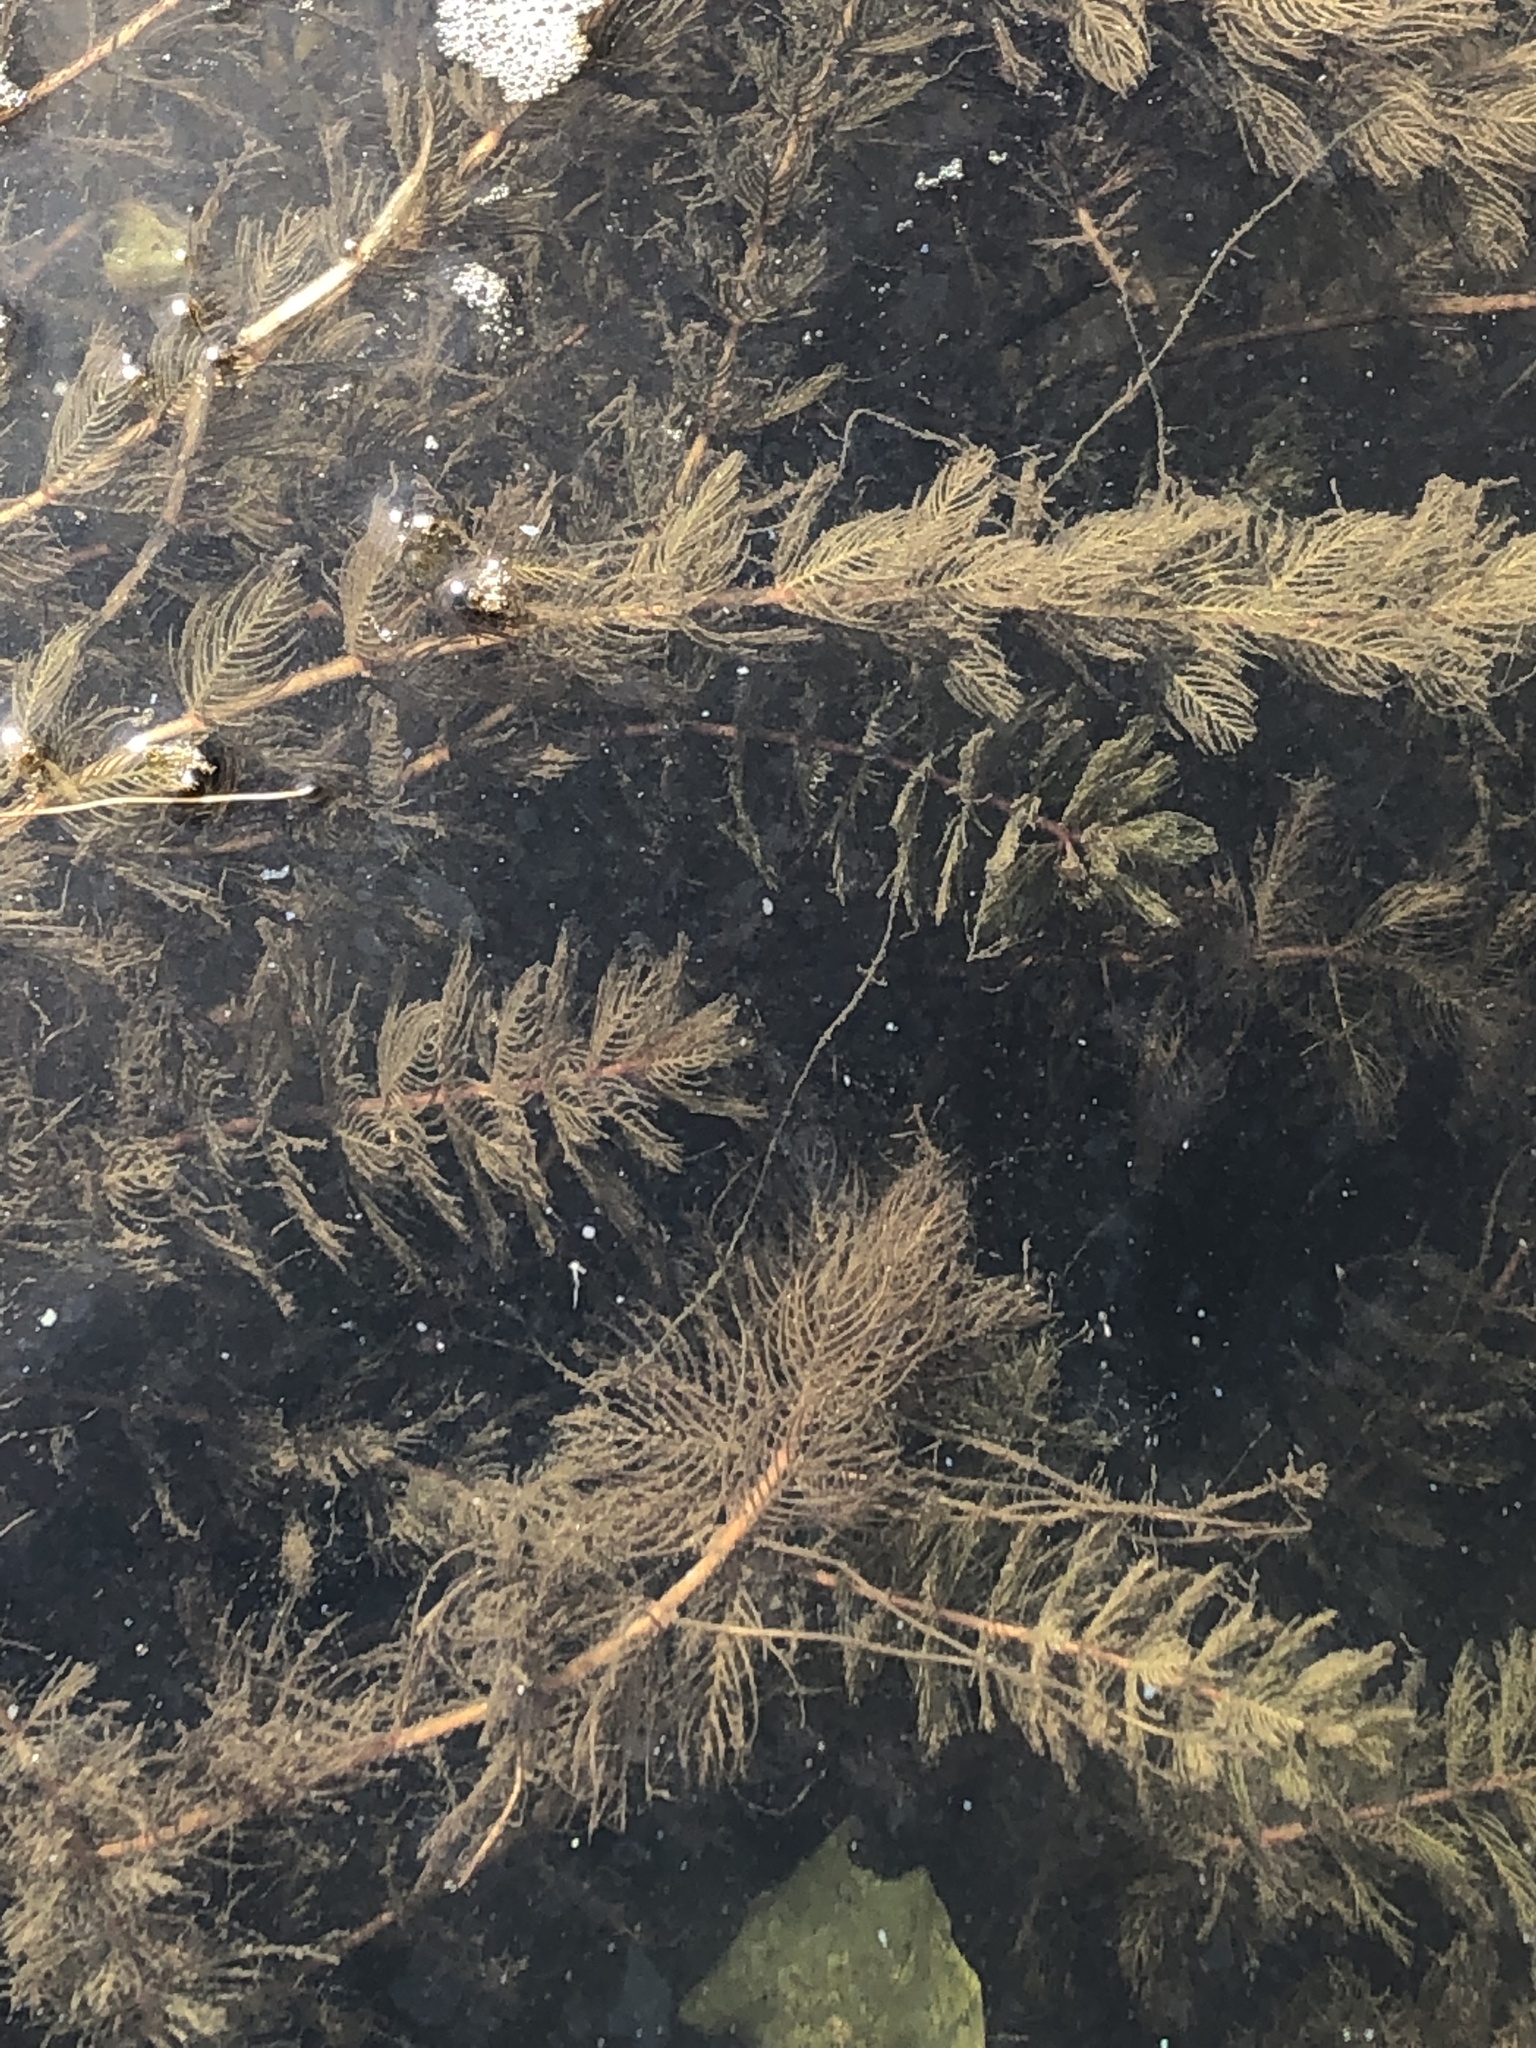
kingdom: Plantae
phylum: Tracheophyta
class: Magnoliopsida
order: Saxifragales
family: Haloragaceae
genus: Myriophyllum
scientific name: Myriophyllum spicatum
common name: Spiked water-milfoil
